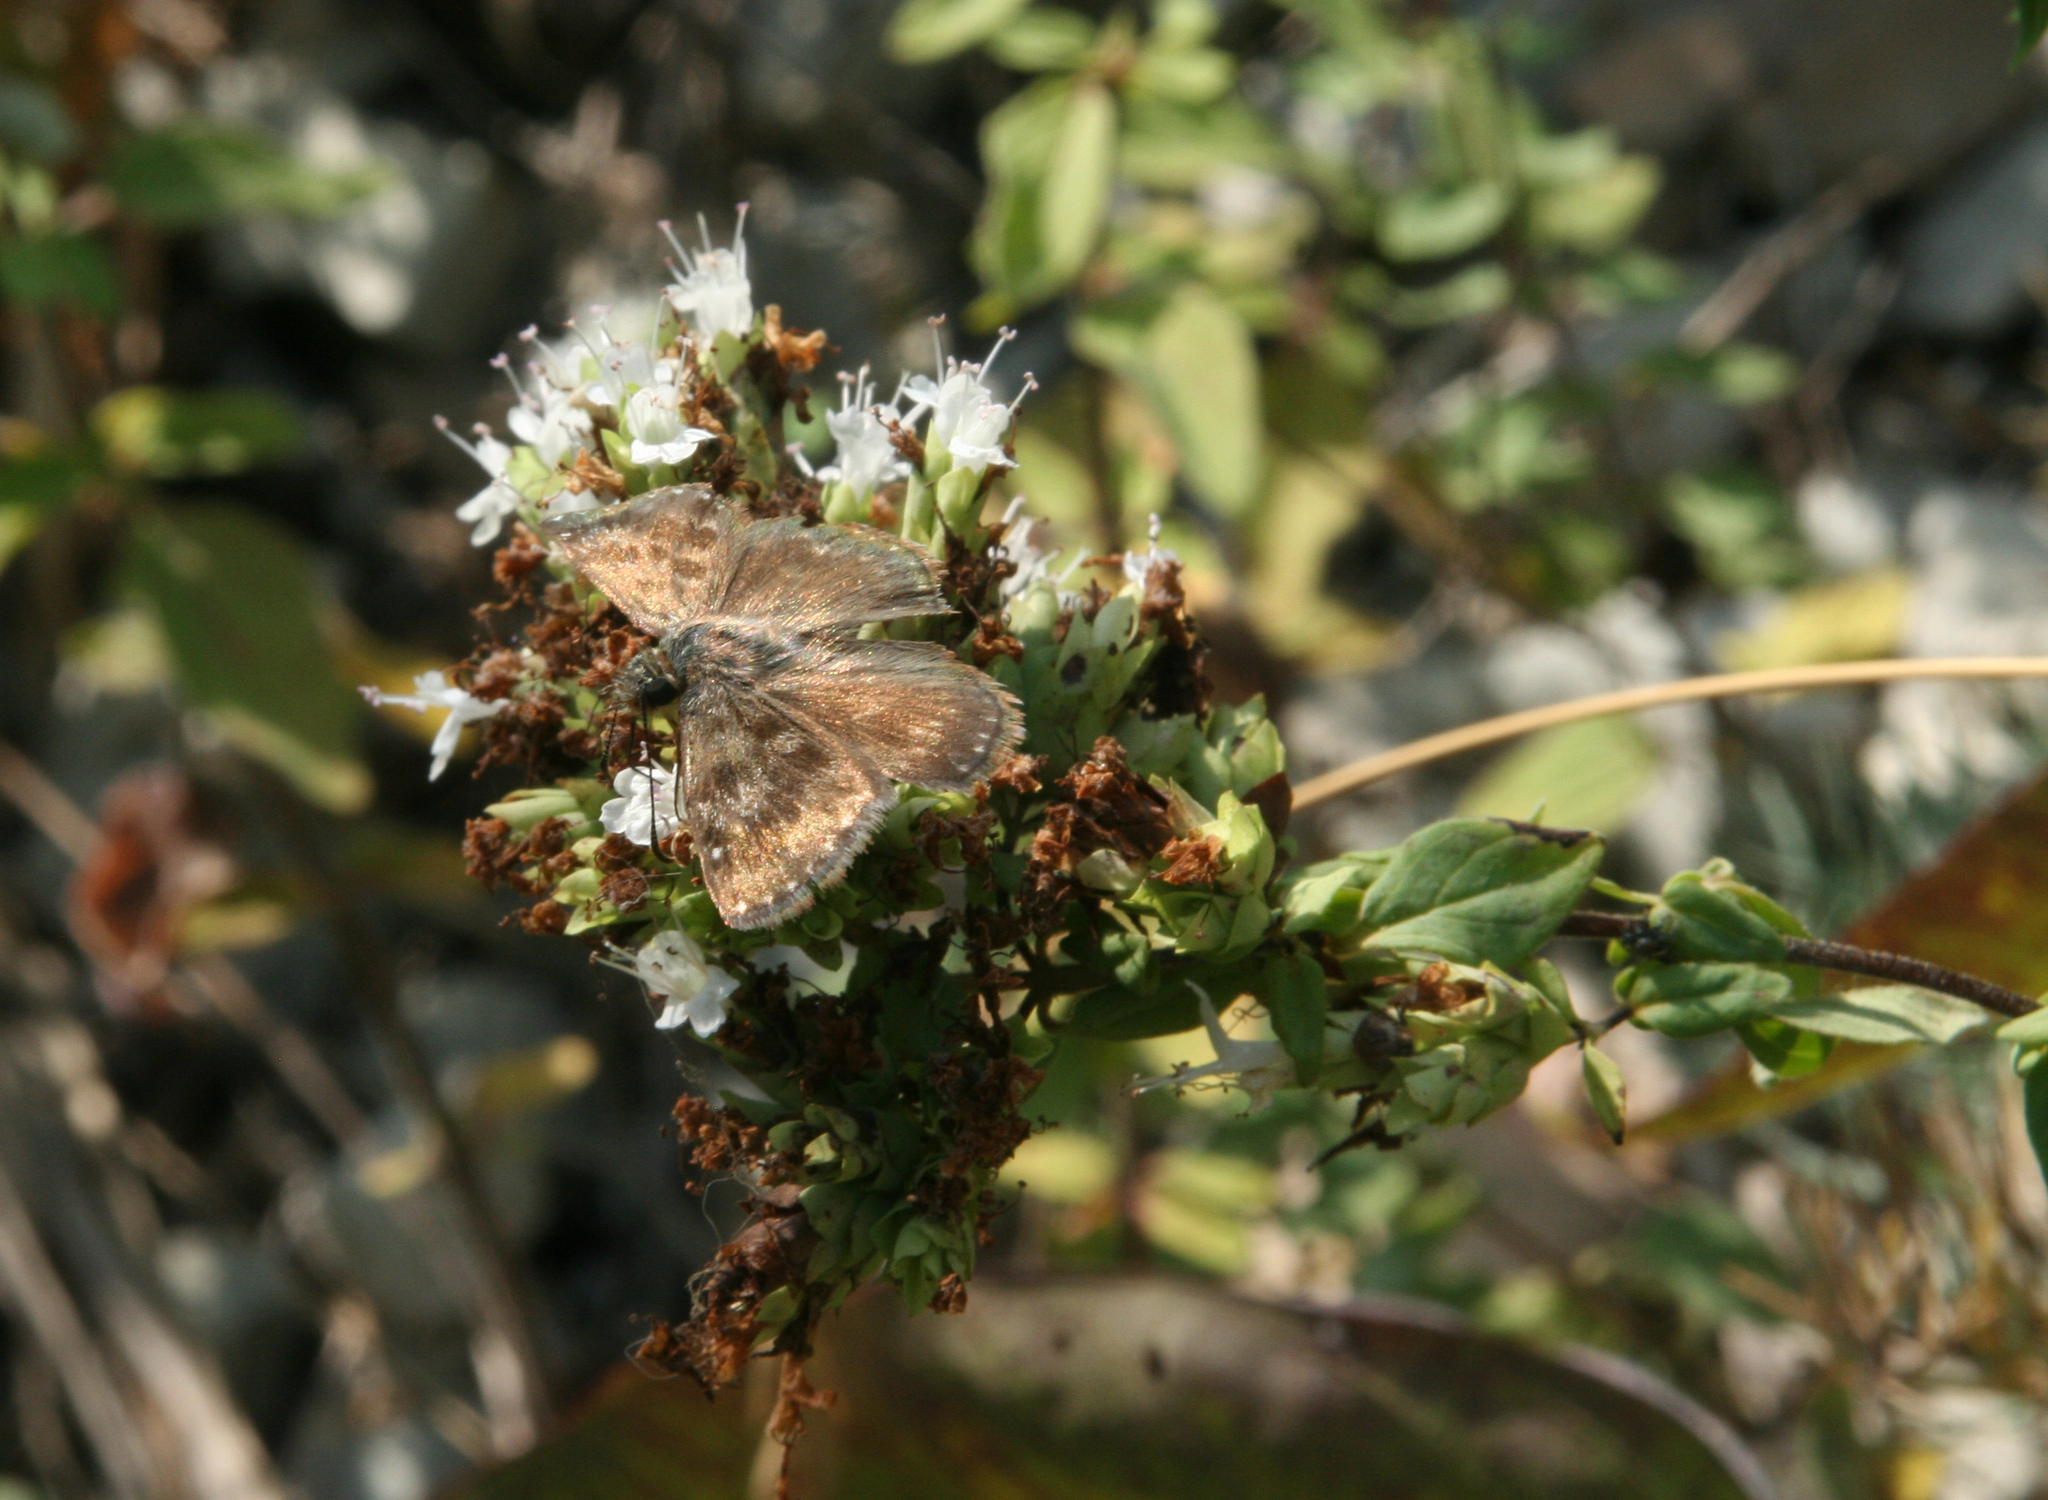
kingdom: Plantae
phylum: Tracheophyta
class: Magnoliopsida
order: Lamiales
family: Lamiaceae
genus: Origanum
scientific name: Origanum vulgare
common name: Wild marjoram
